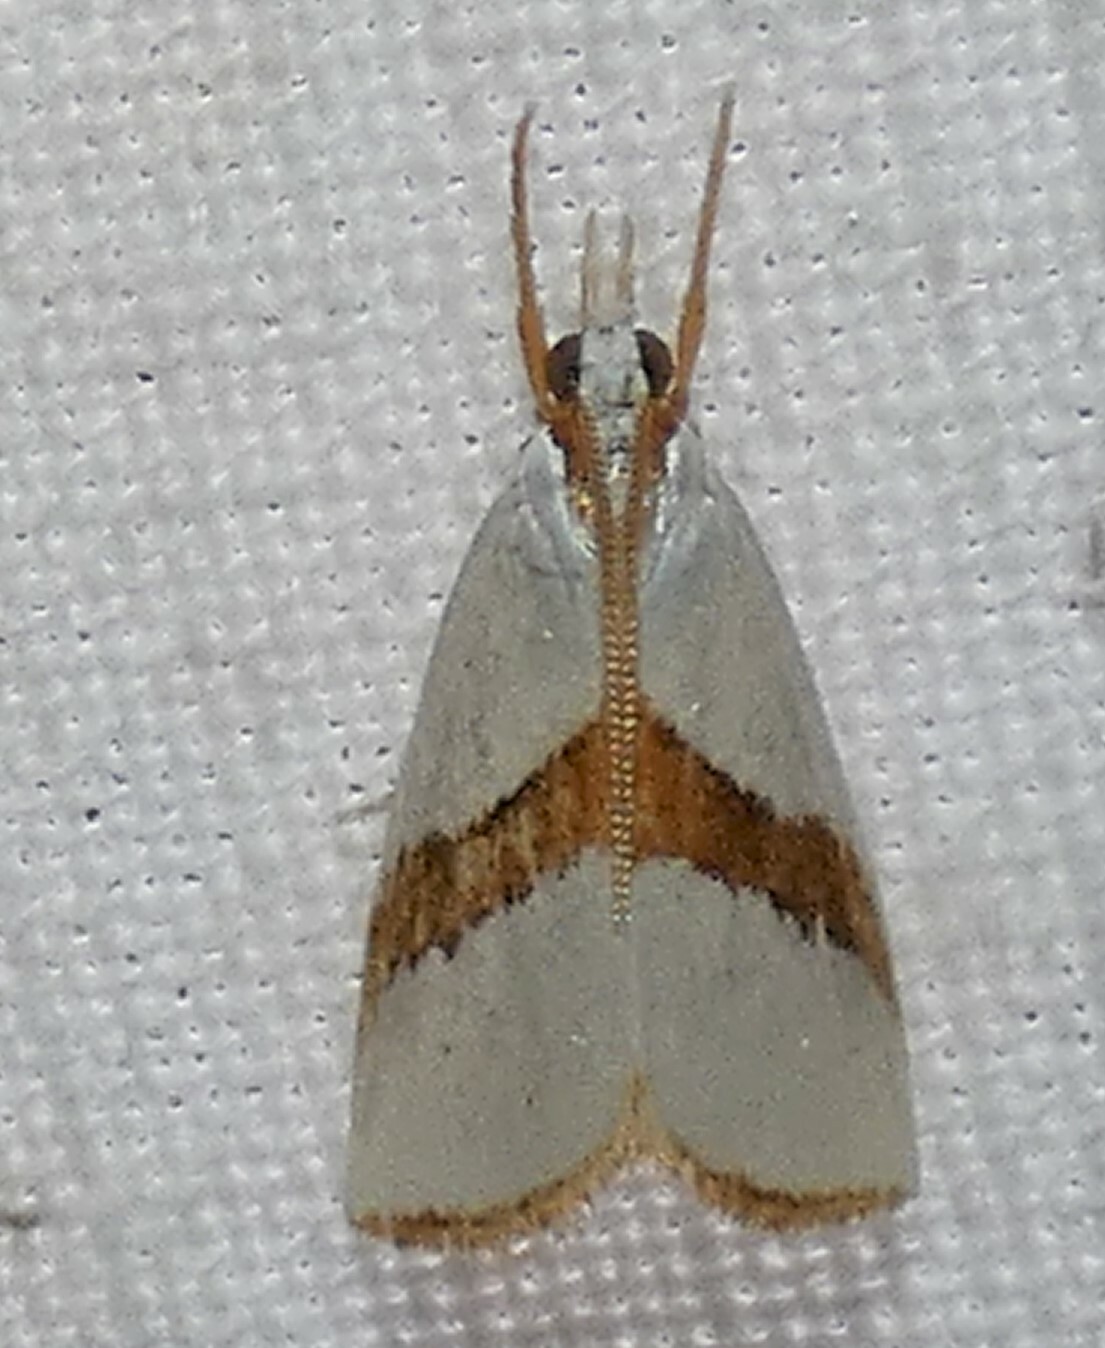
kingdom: Animalia
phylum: Arthropoda
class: Insecta
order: Lepidoptera
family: Crambidae
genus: Vaxi
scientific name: Vaxi critica
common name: Straight-lined vaxi moth
